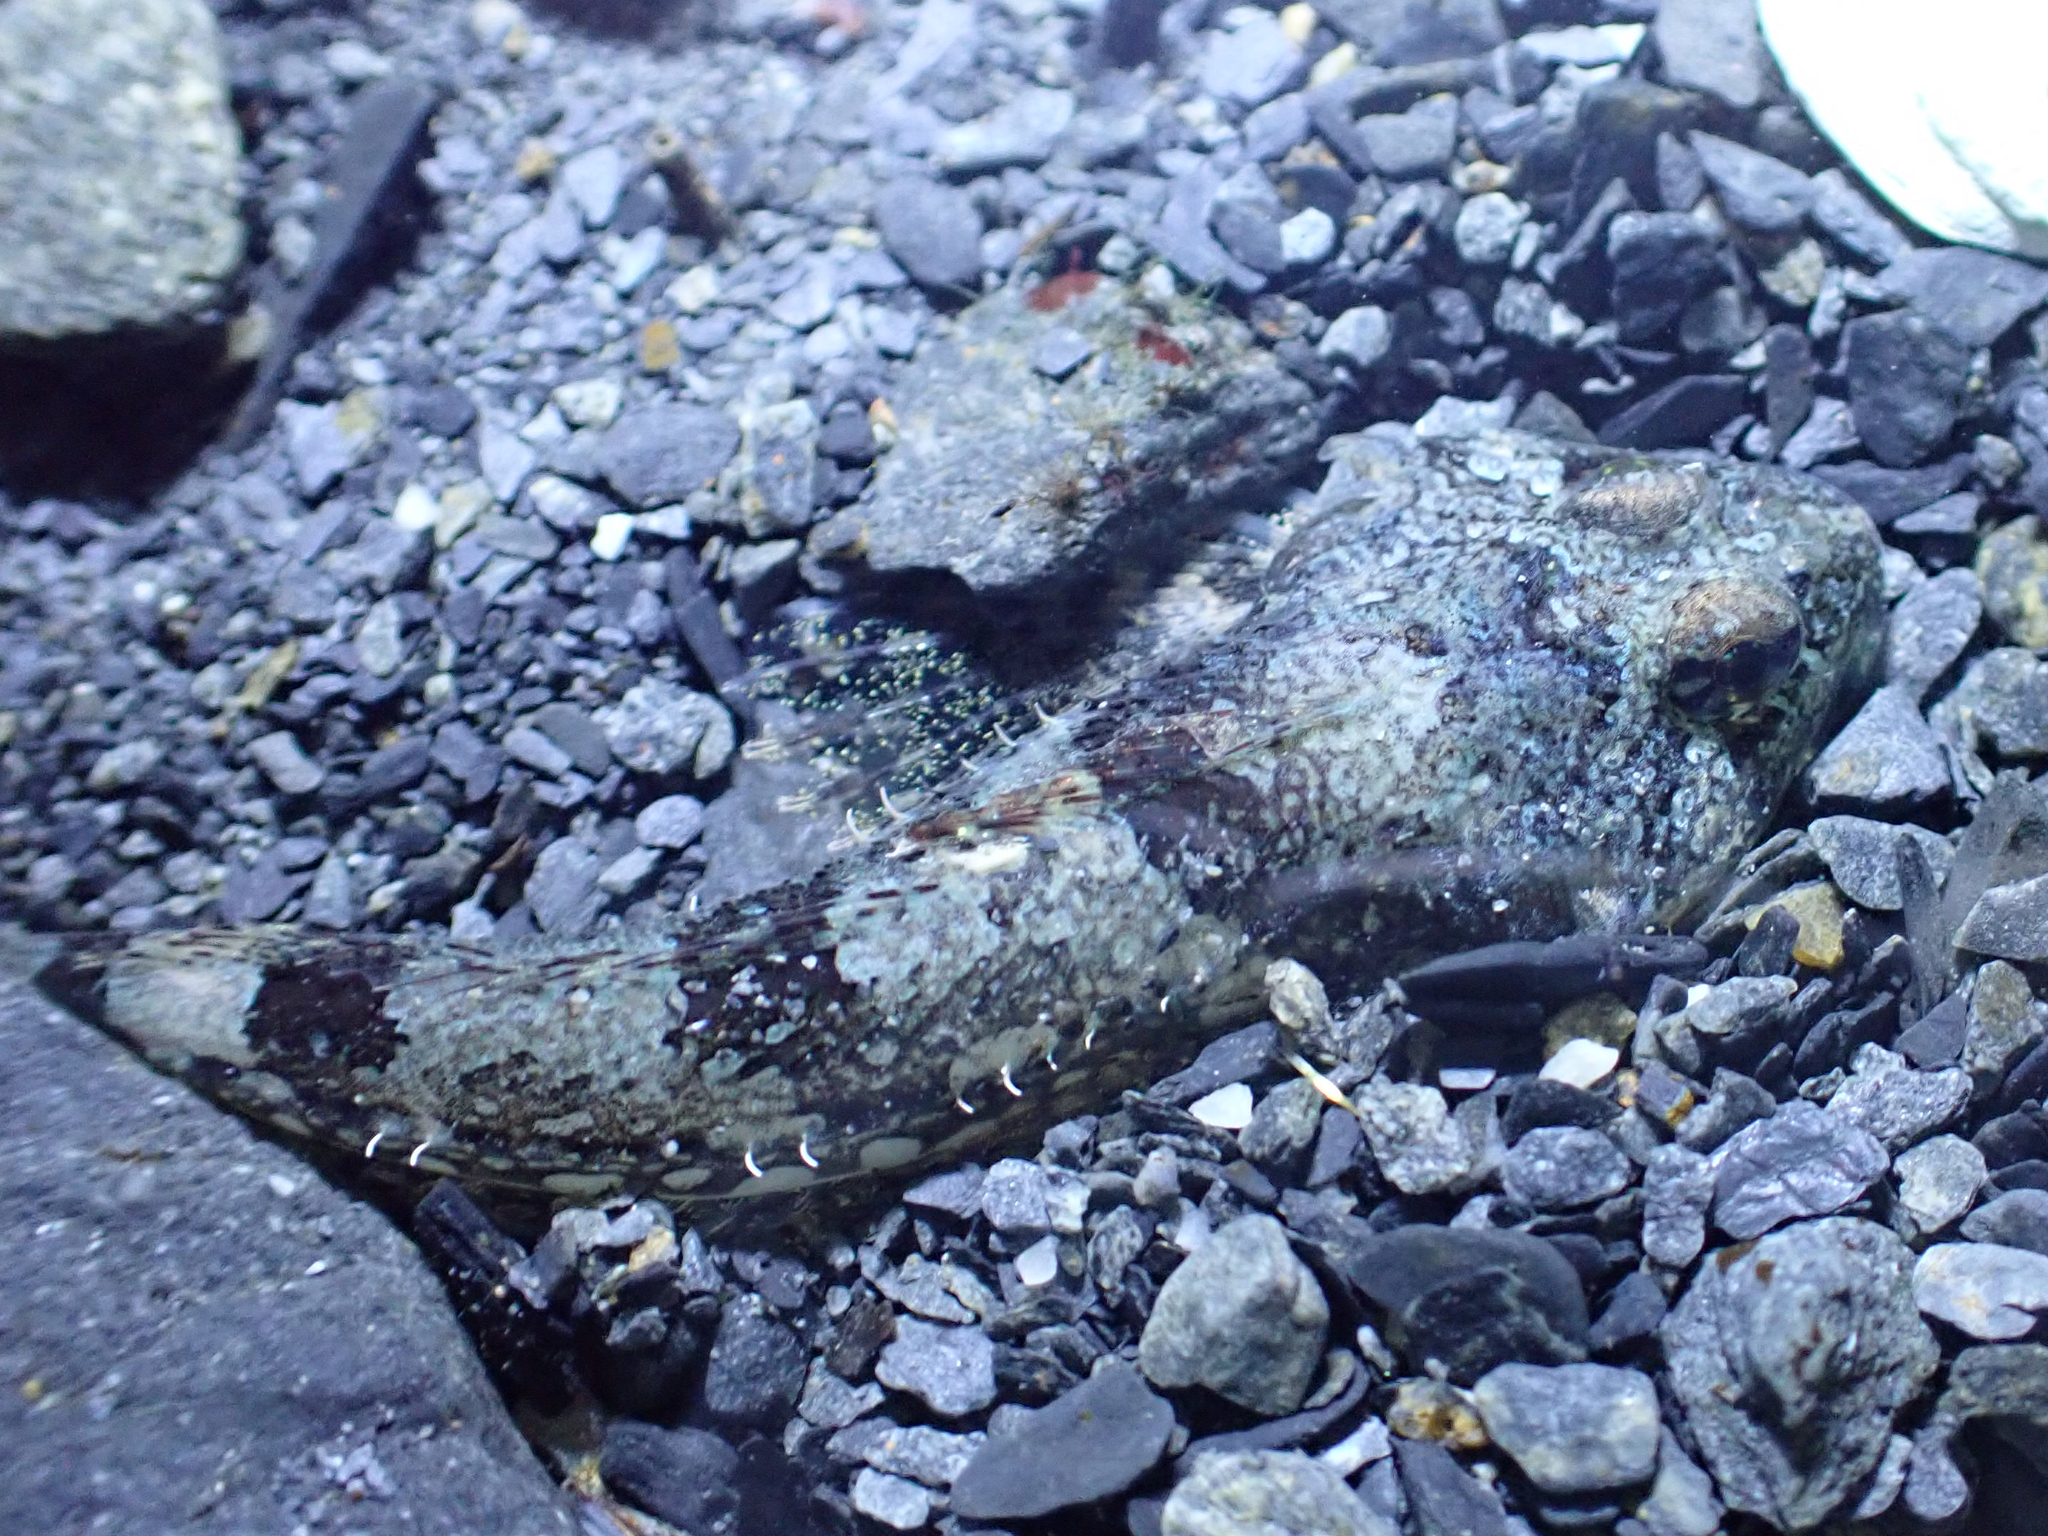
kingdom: Animalia
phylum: Chordata
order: Scorpaeniformes
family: Cottidae
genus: Artedius
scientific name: Artedius fenestralis
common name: Padded sculpin
